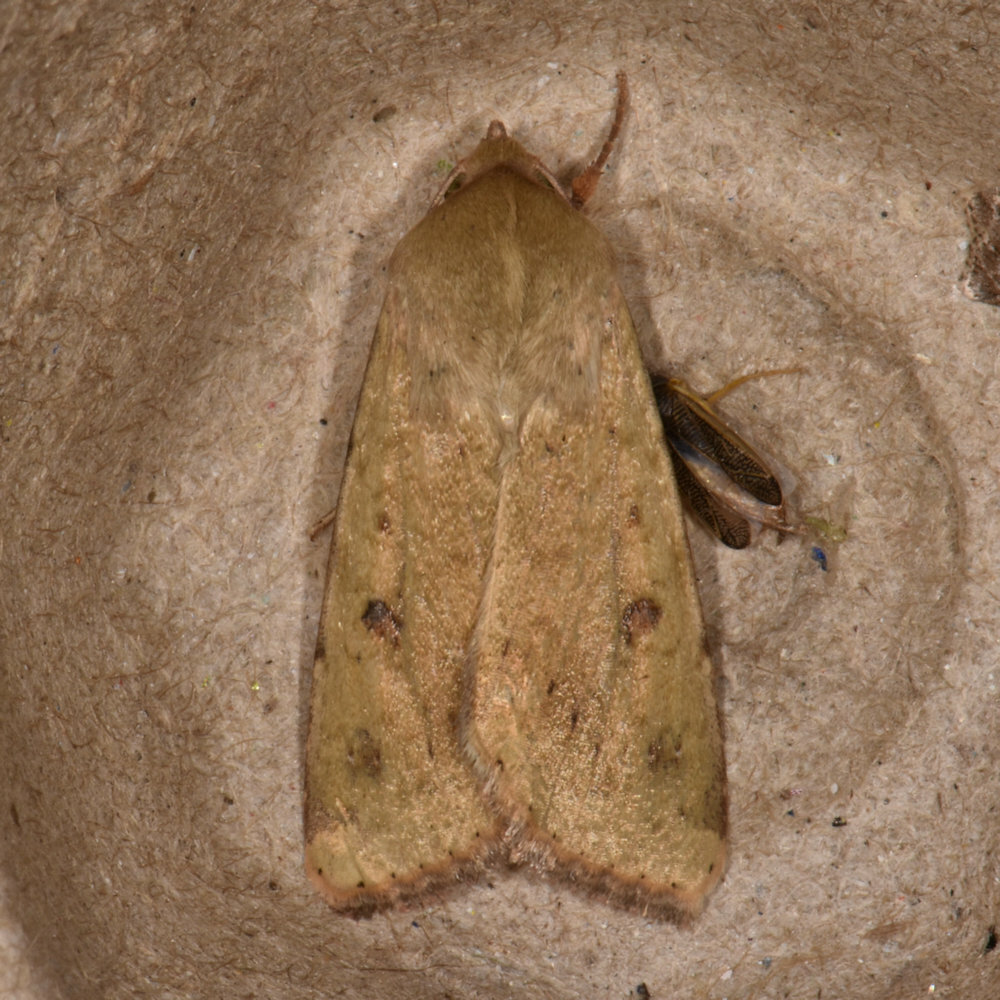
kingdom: Animalia
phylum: Arthropoda
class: Insecta
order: Lepidoptera
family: Noctuidae
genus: Helicoverpa
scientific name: Helicoverpa zea
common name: Bollworm
